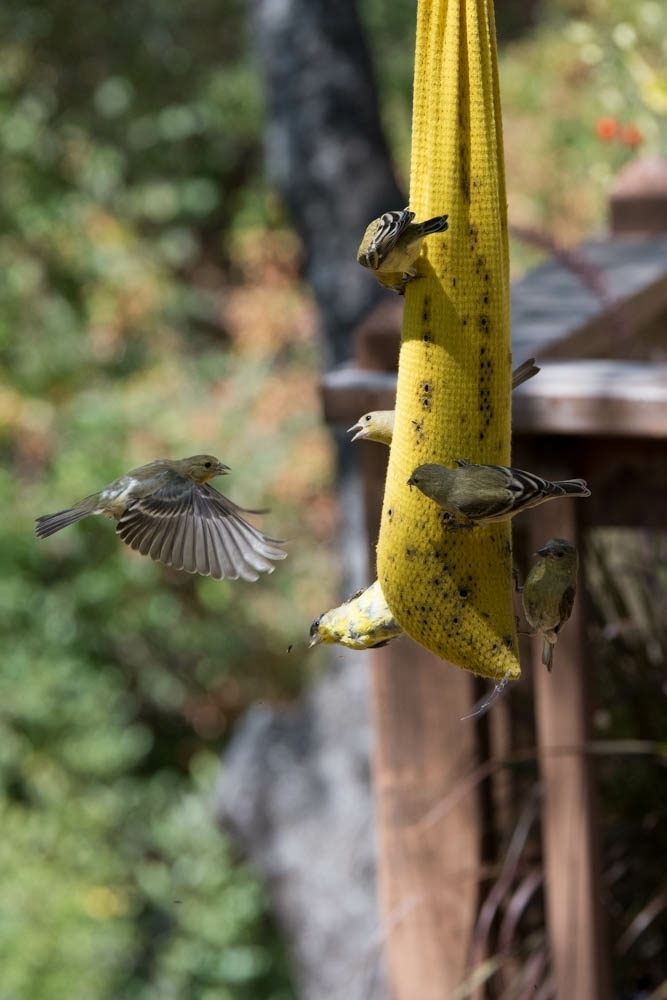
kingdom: Animalia
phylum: Chordata
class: Aves
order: Passeriformes
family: Fringillidae
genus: Spinus
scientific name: Spinus psaltria
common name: Lesser goldfinch
